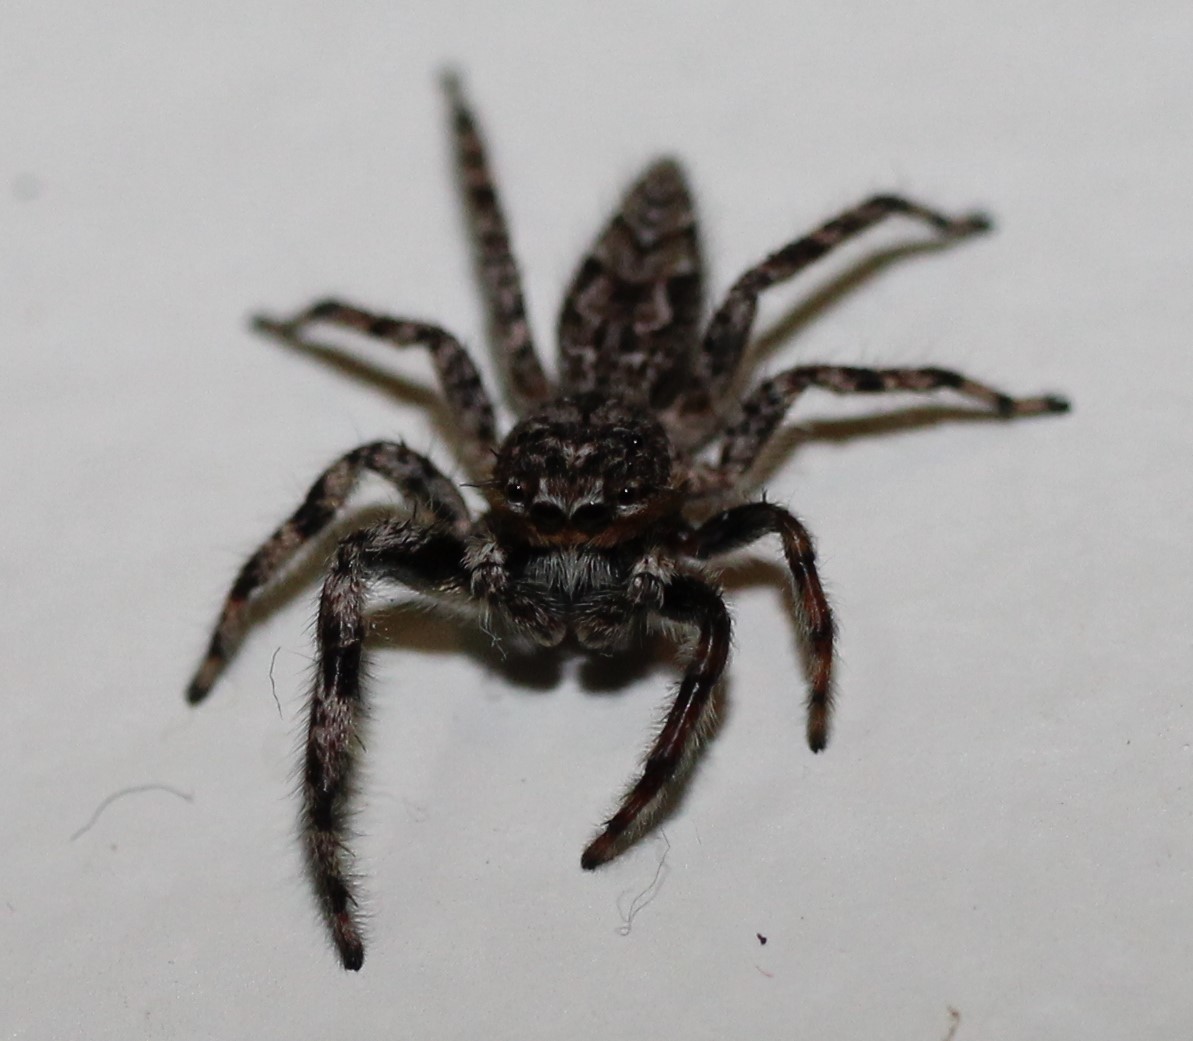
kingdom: Animalia
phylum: Arthropoda
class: Arachnida
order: Araneae
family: Salticidae
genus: Platycryptus
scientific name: Platycryptus undatus
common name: Tan jumping spider
